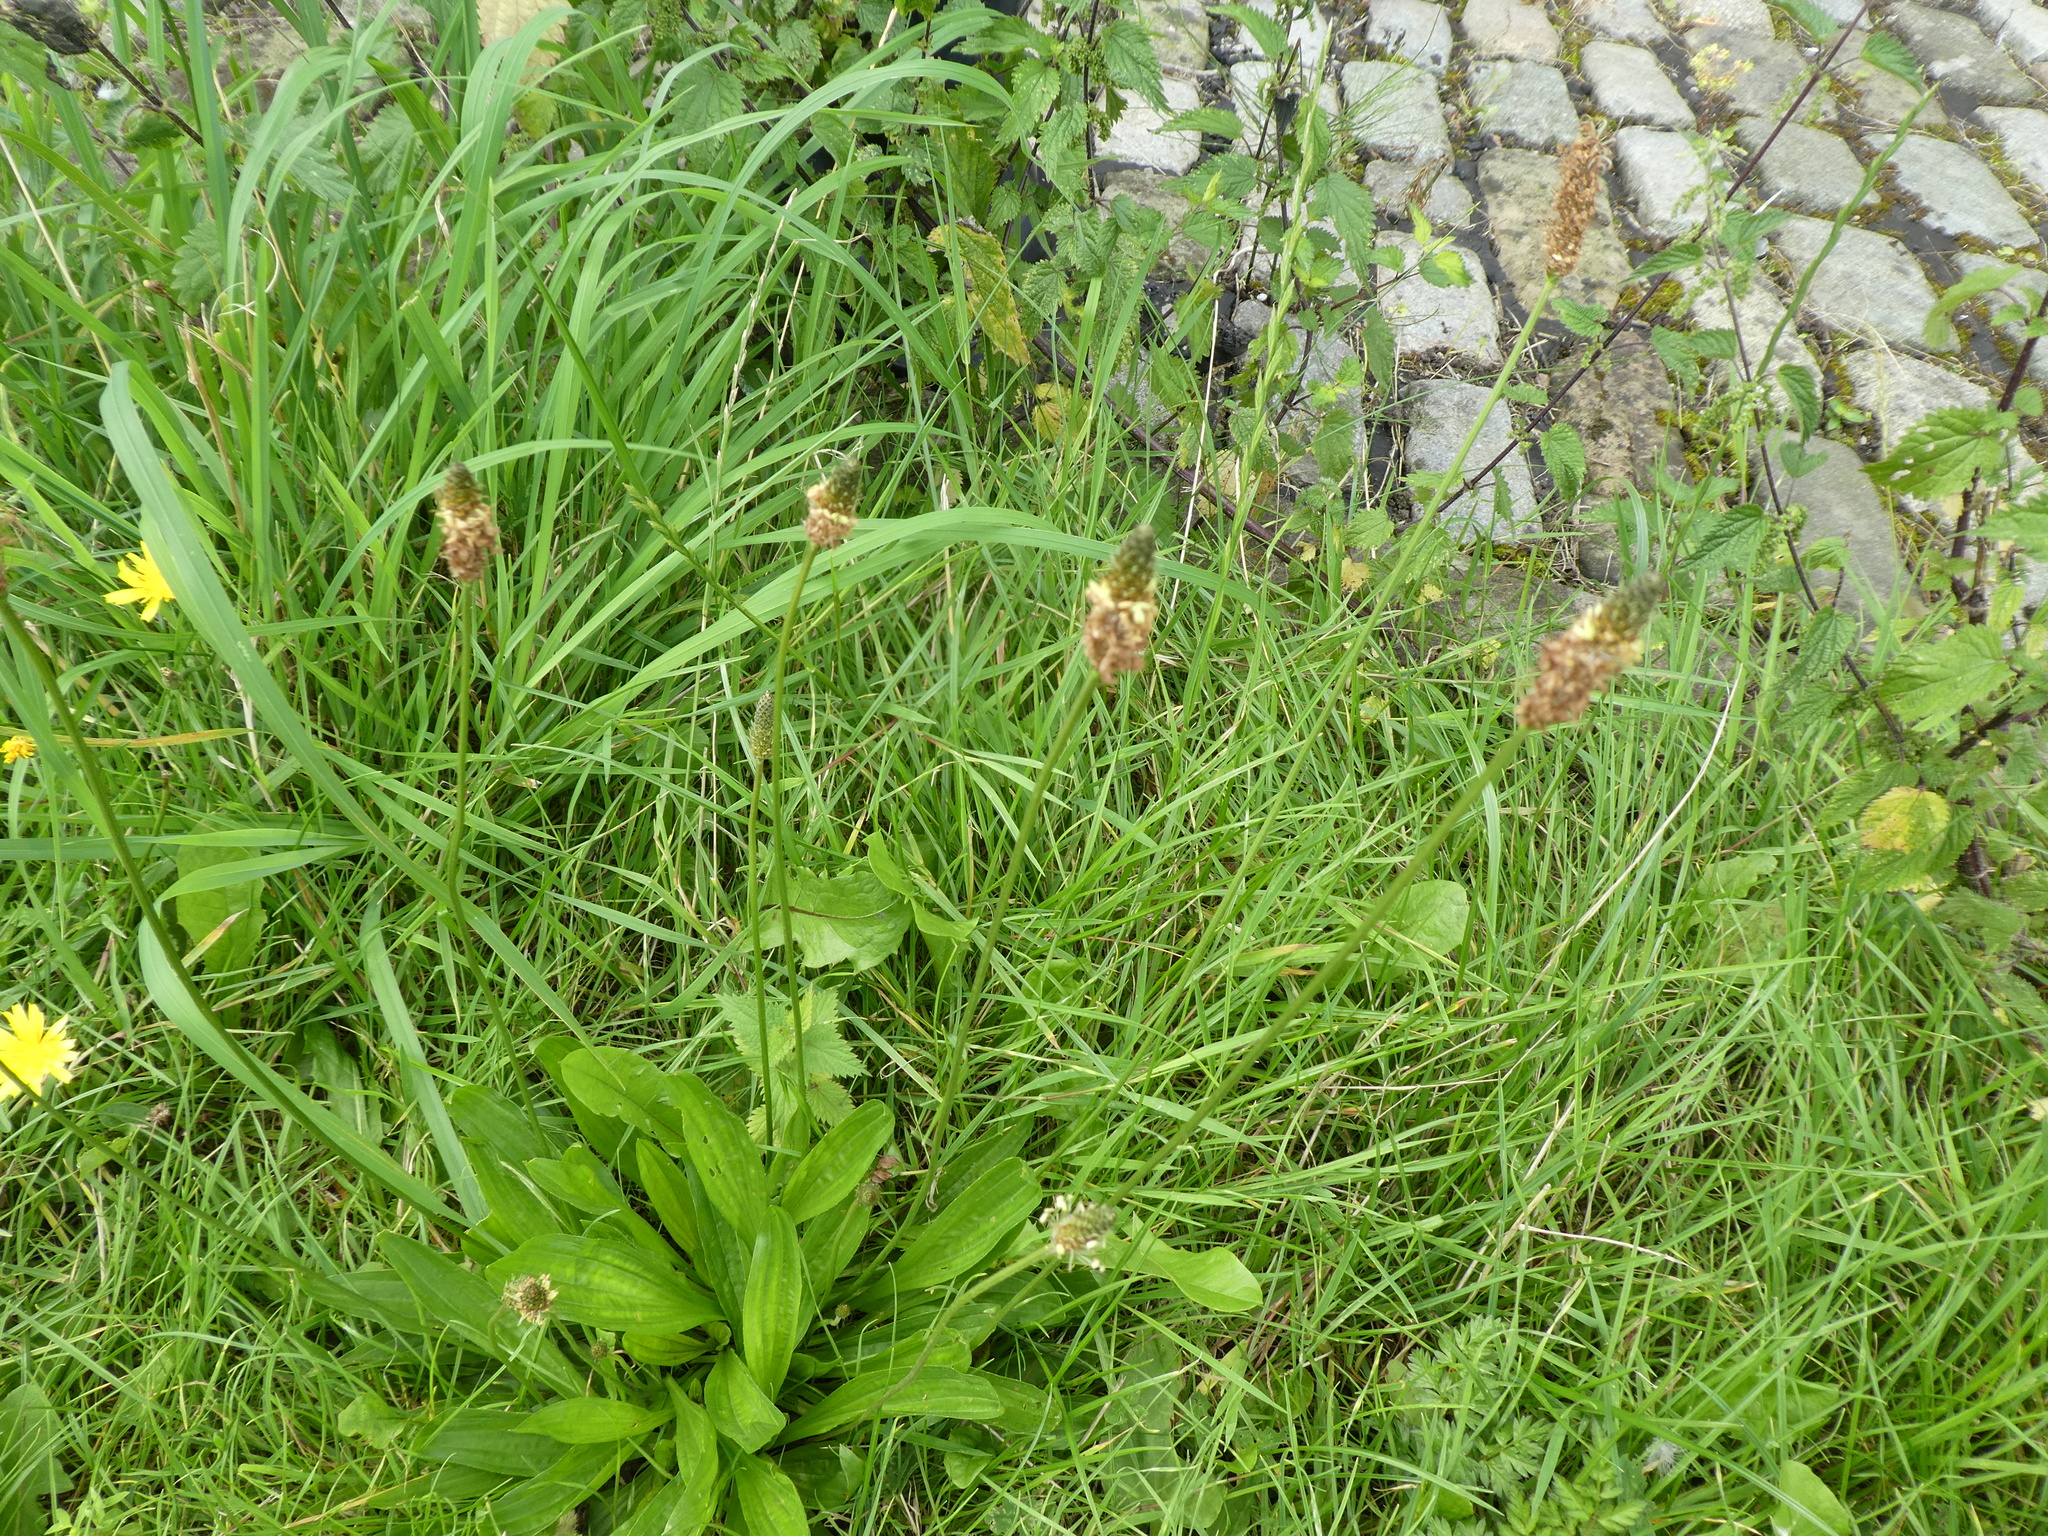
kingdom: Plantae
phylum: Tracheophyta
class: Magnoliopsida
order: Lamiales
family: Plantaginaceae
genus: Plantago
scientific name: Plantago lanceolata
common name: Ribwort plantain
